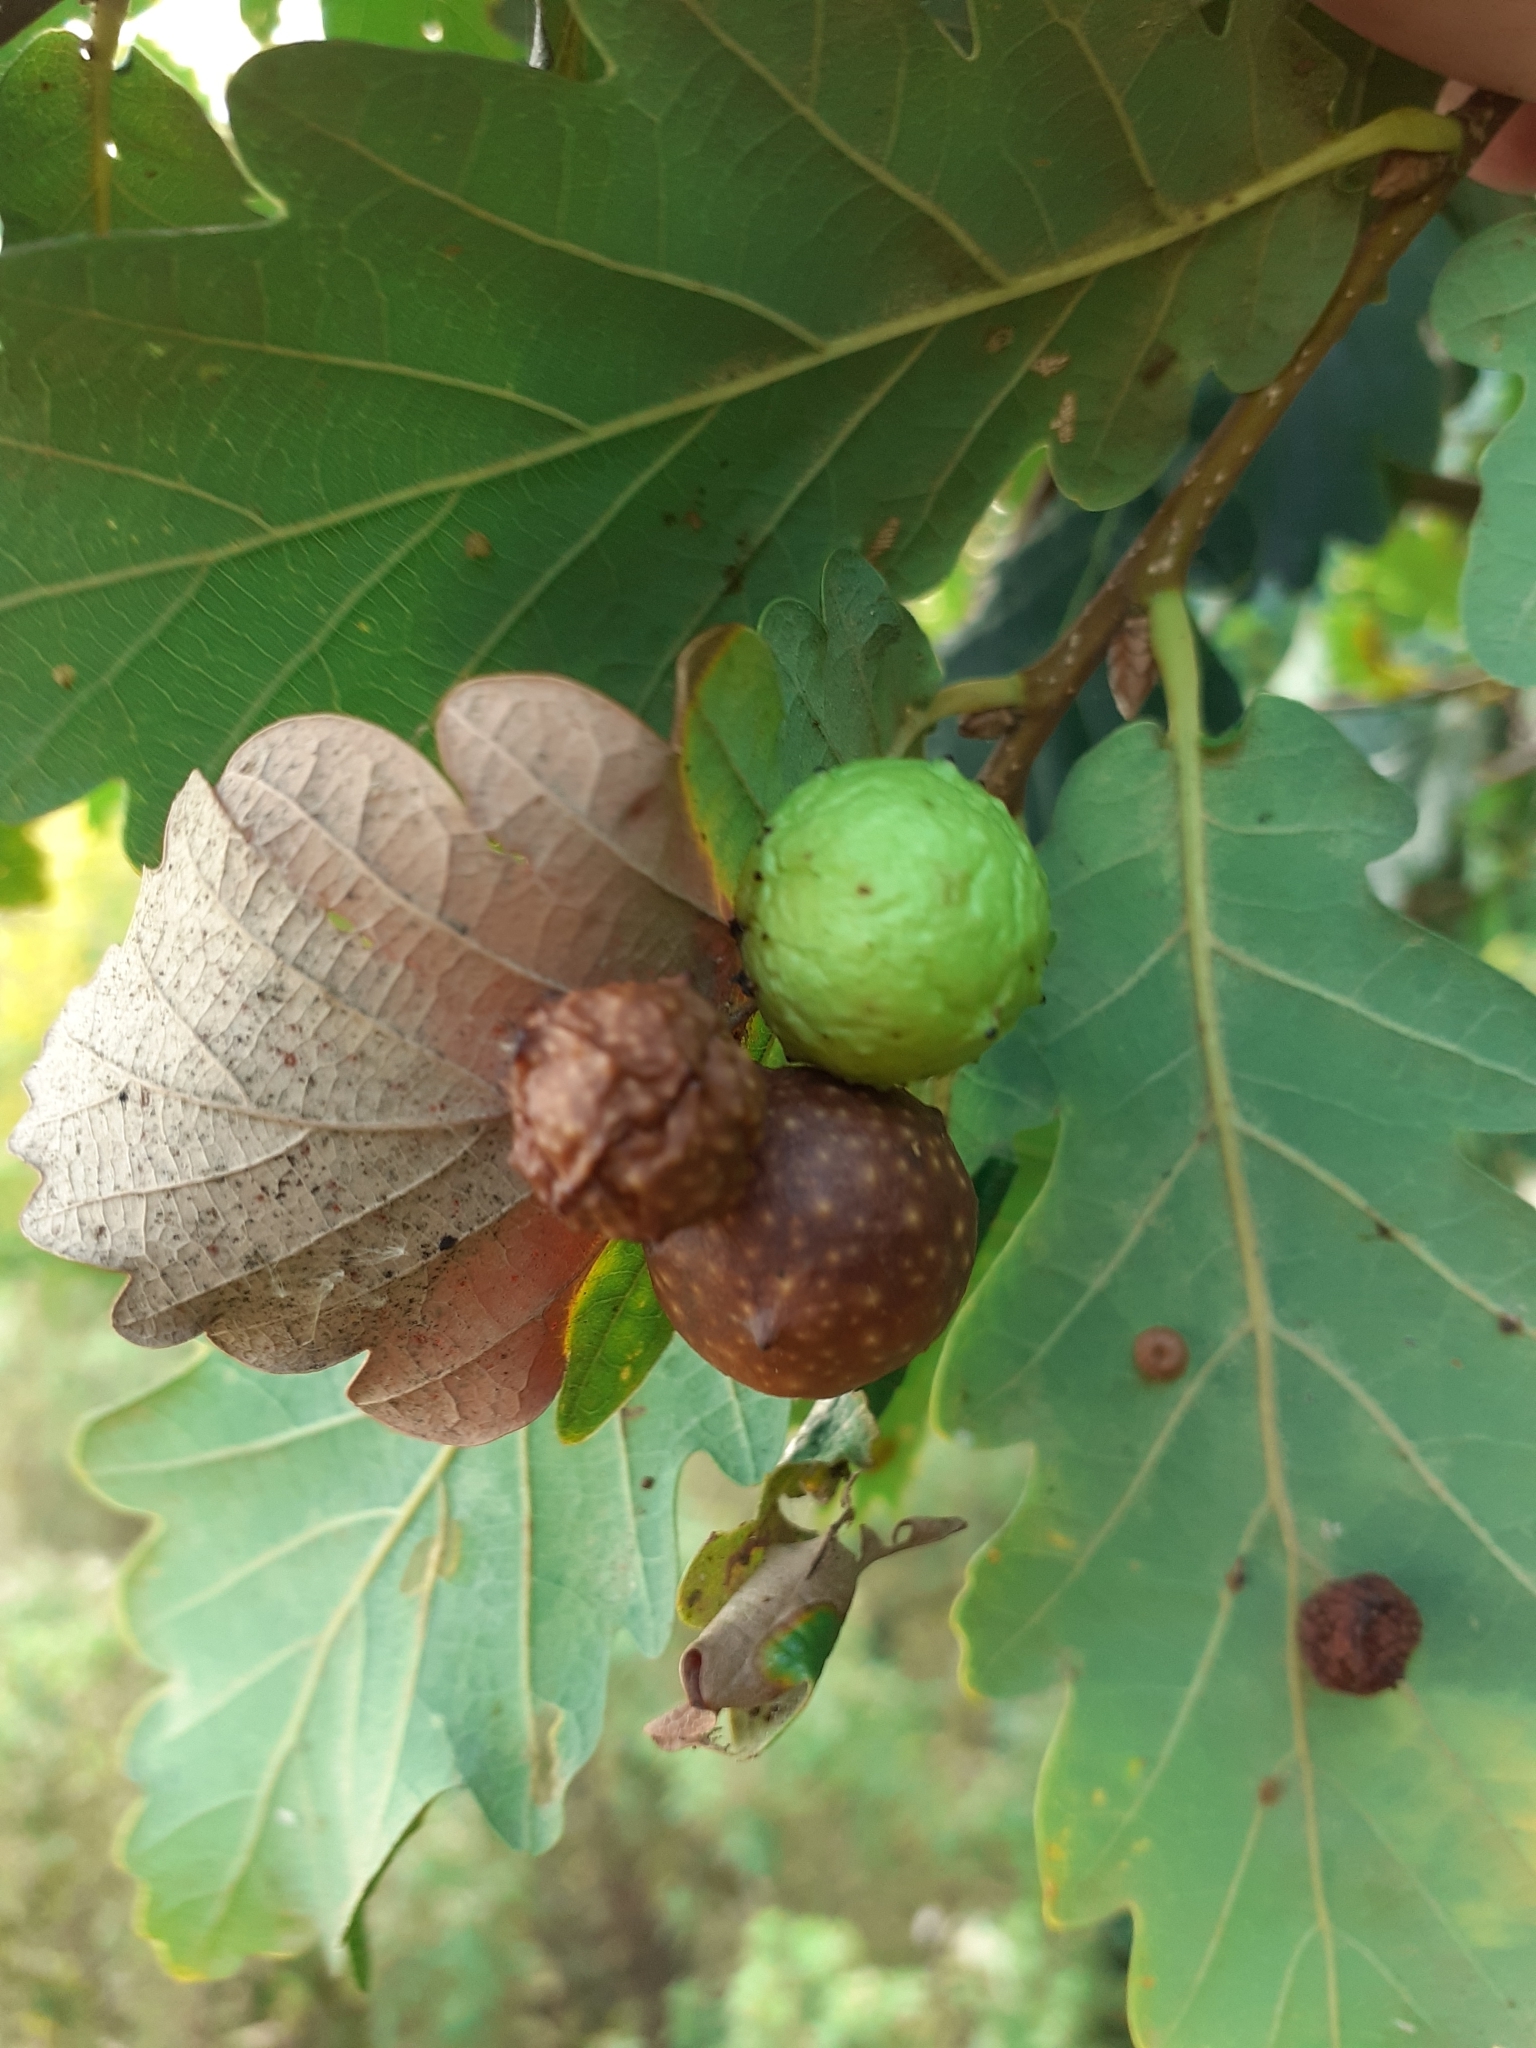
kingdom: Animalia
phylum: Arthropoda
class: Insecta
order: Hymenoptera
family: Cynipidae
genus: Cynips
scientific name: Cynips quercusfolii
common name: Cherry gall
